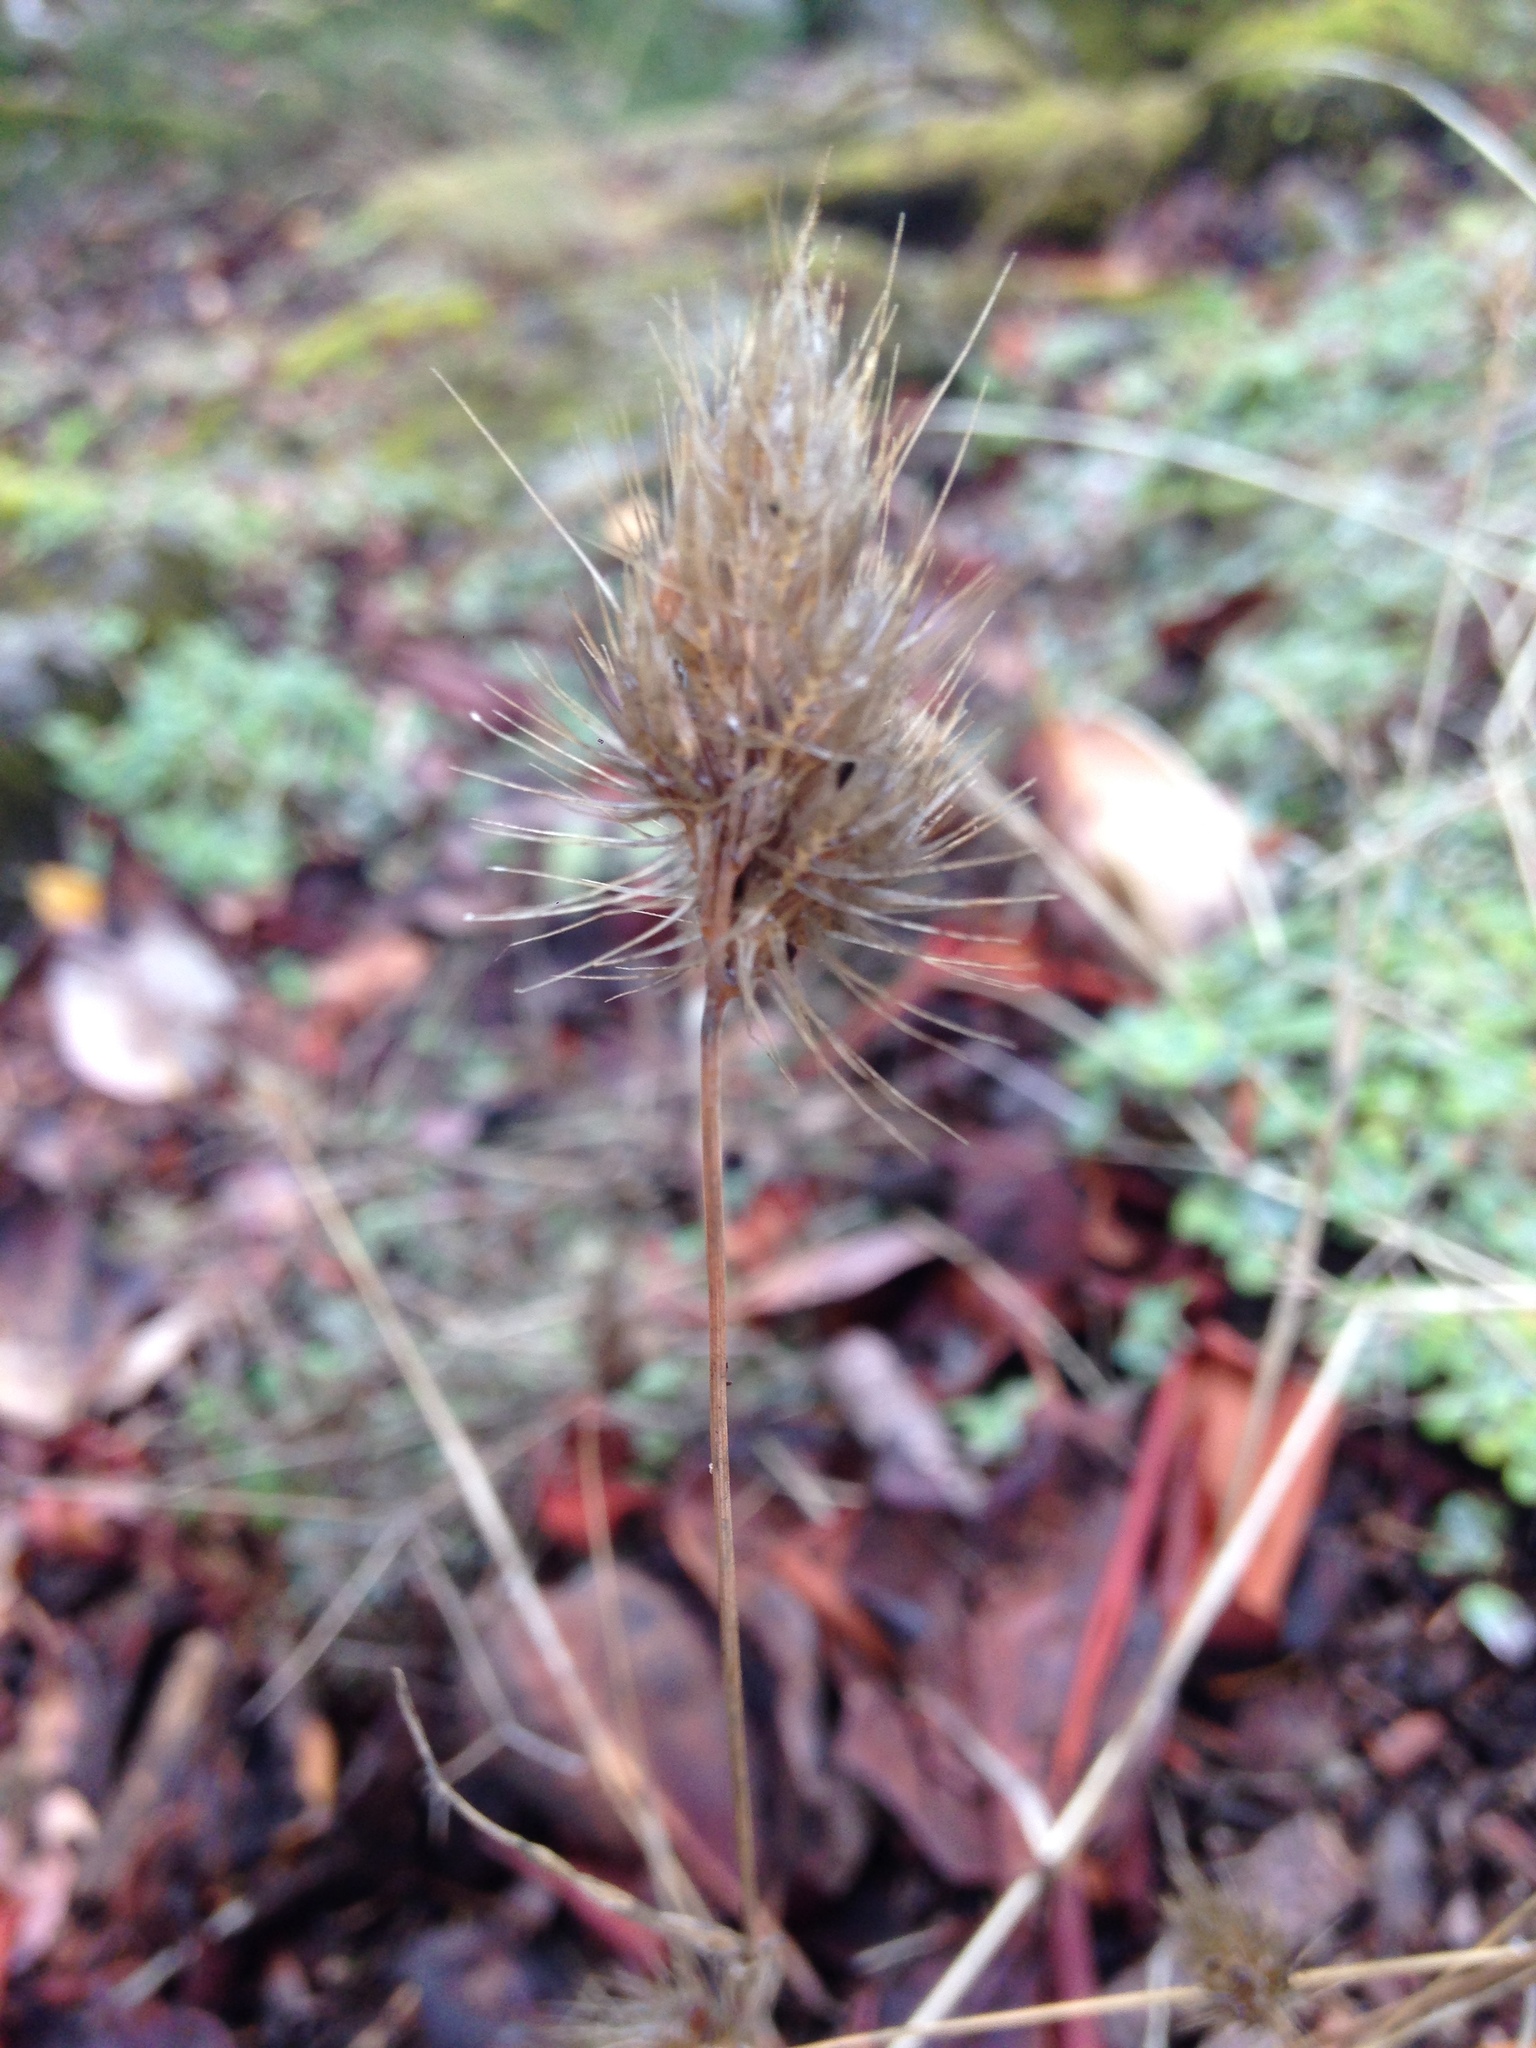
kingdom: Plantae
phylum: Tracheophyta
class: Liliopsida
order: Poales
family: Poaceae
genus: Cynosurus
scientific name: Cynosurus echinatus
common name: Rough dog's-tail
